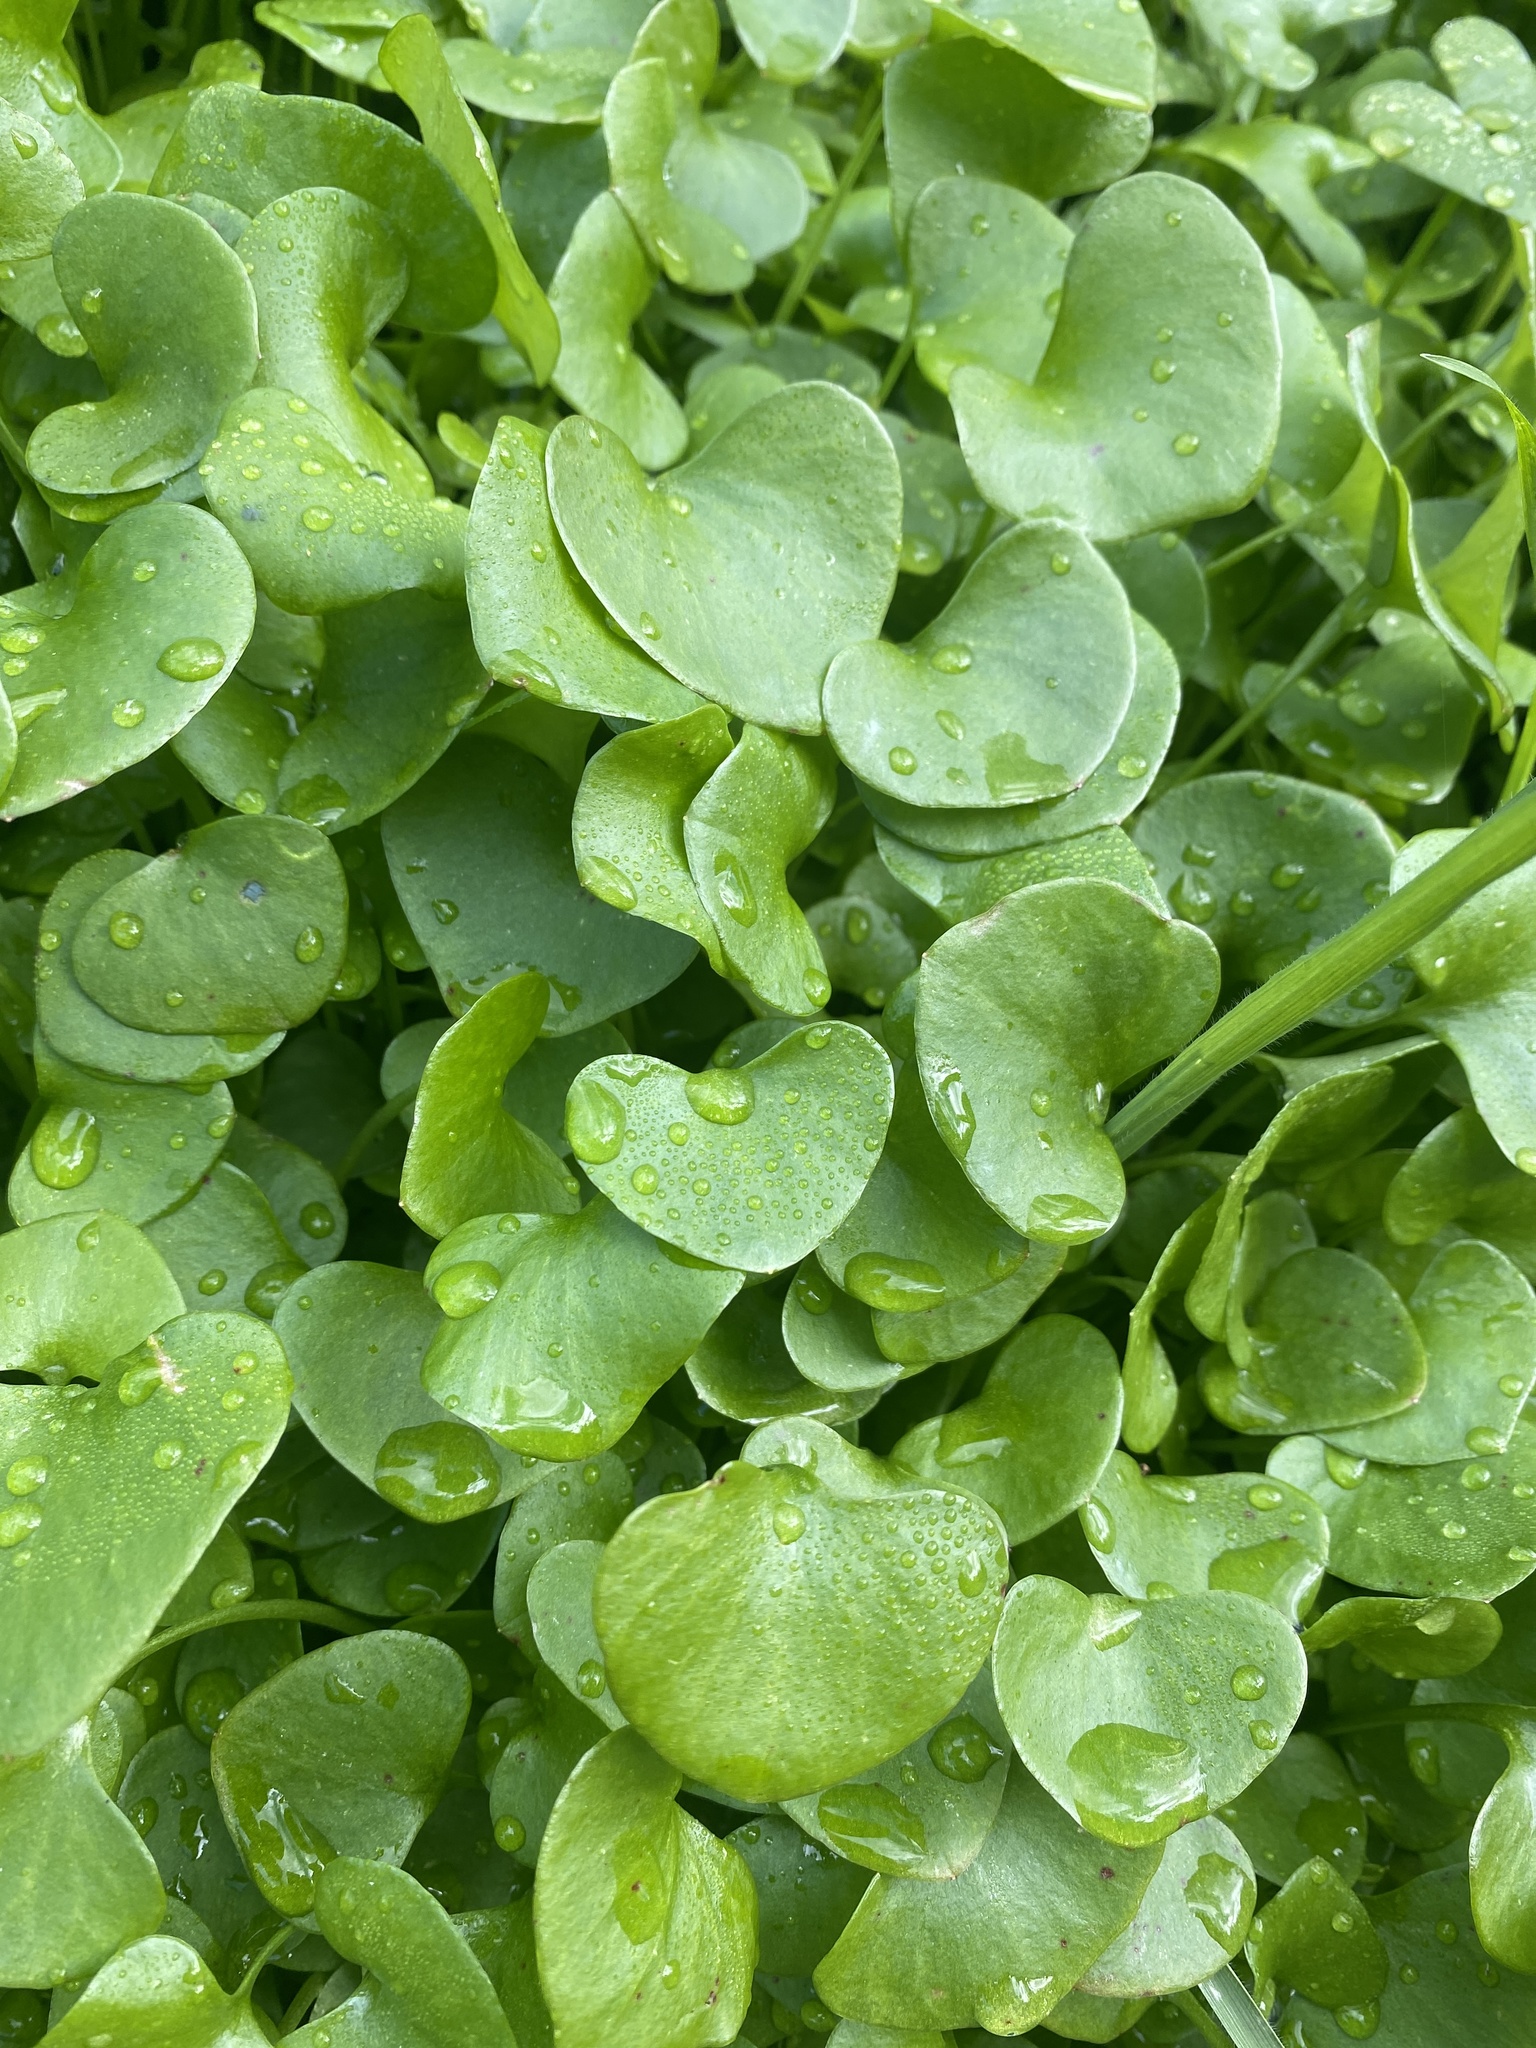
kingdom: Plantae
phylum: Tracheophyta
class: Magnoliopsida
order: Caryophyllales
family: Montiaceae
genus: Claytonia
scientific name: Claytonia perfoliata
